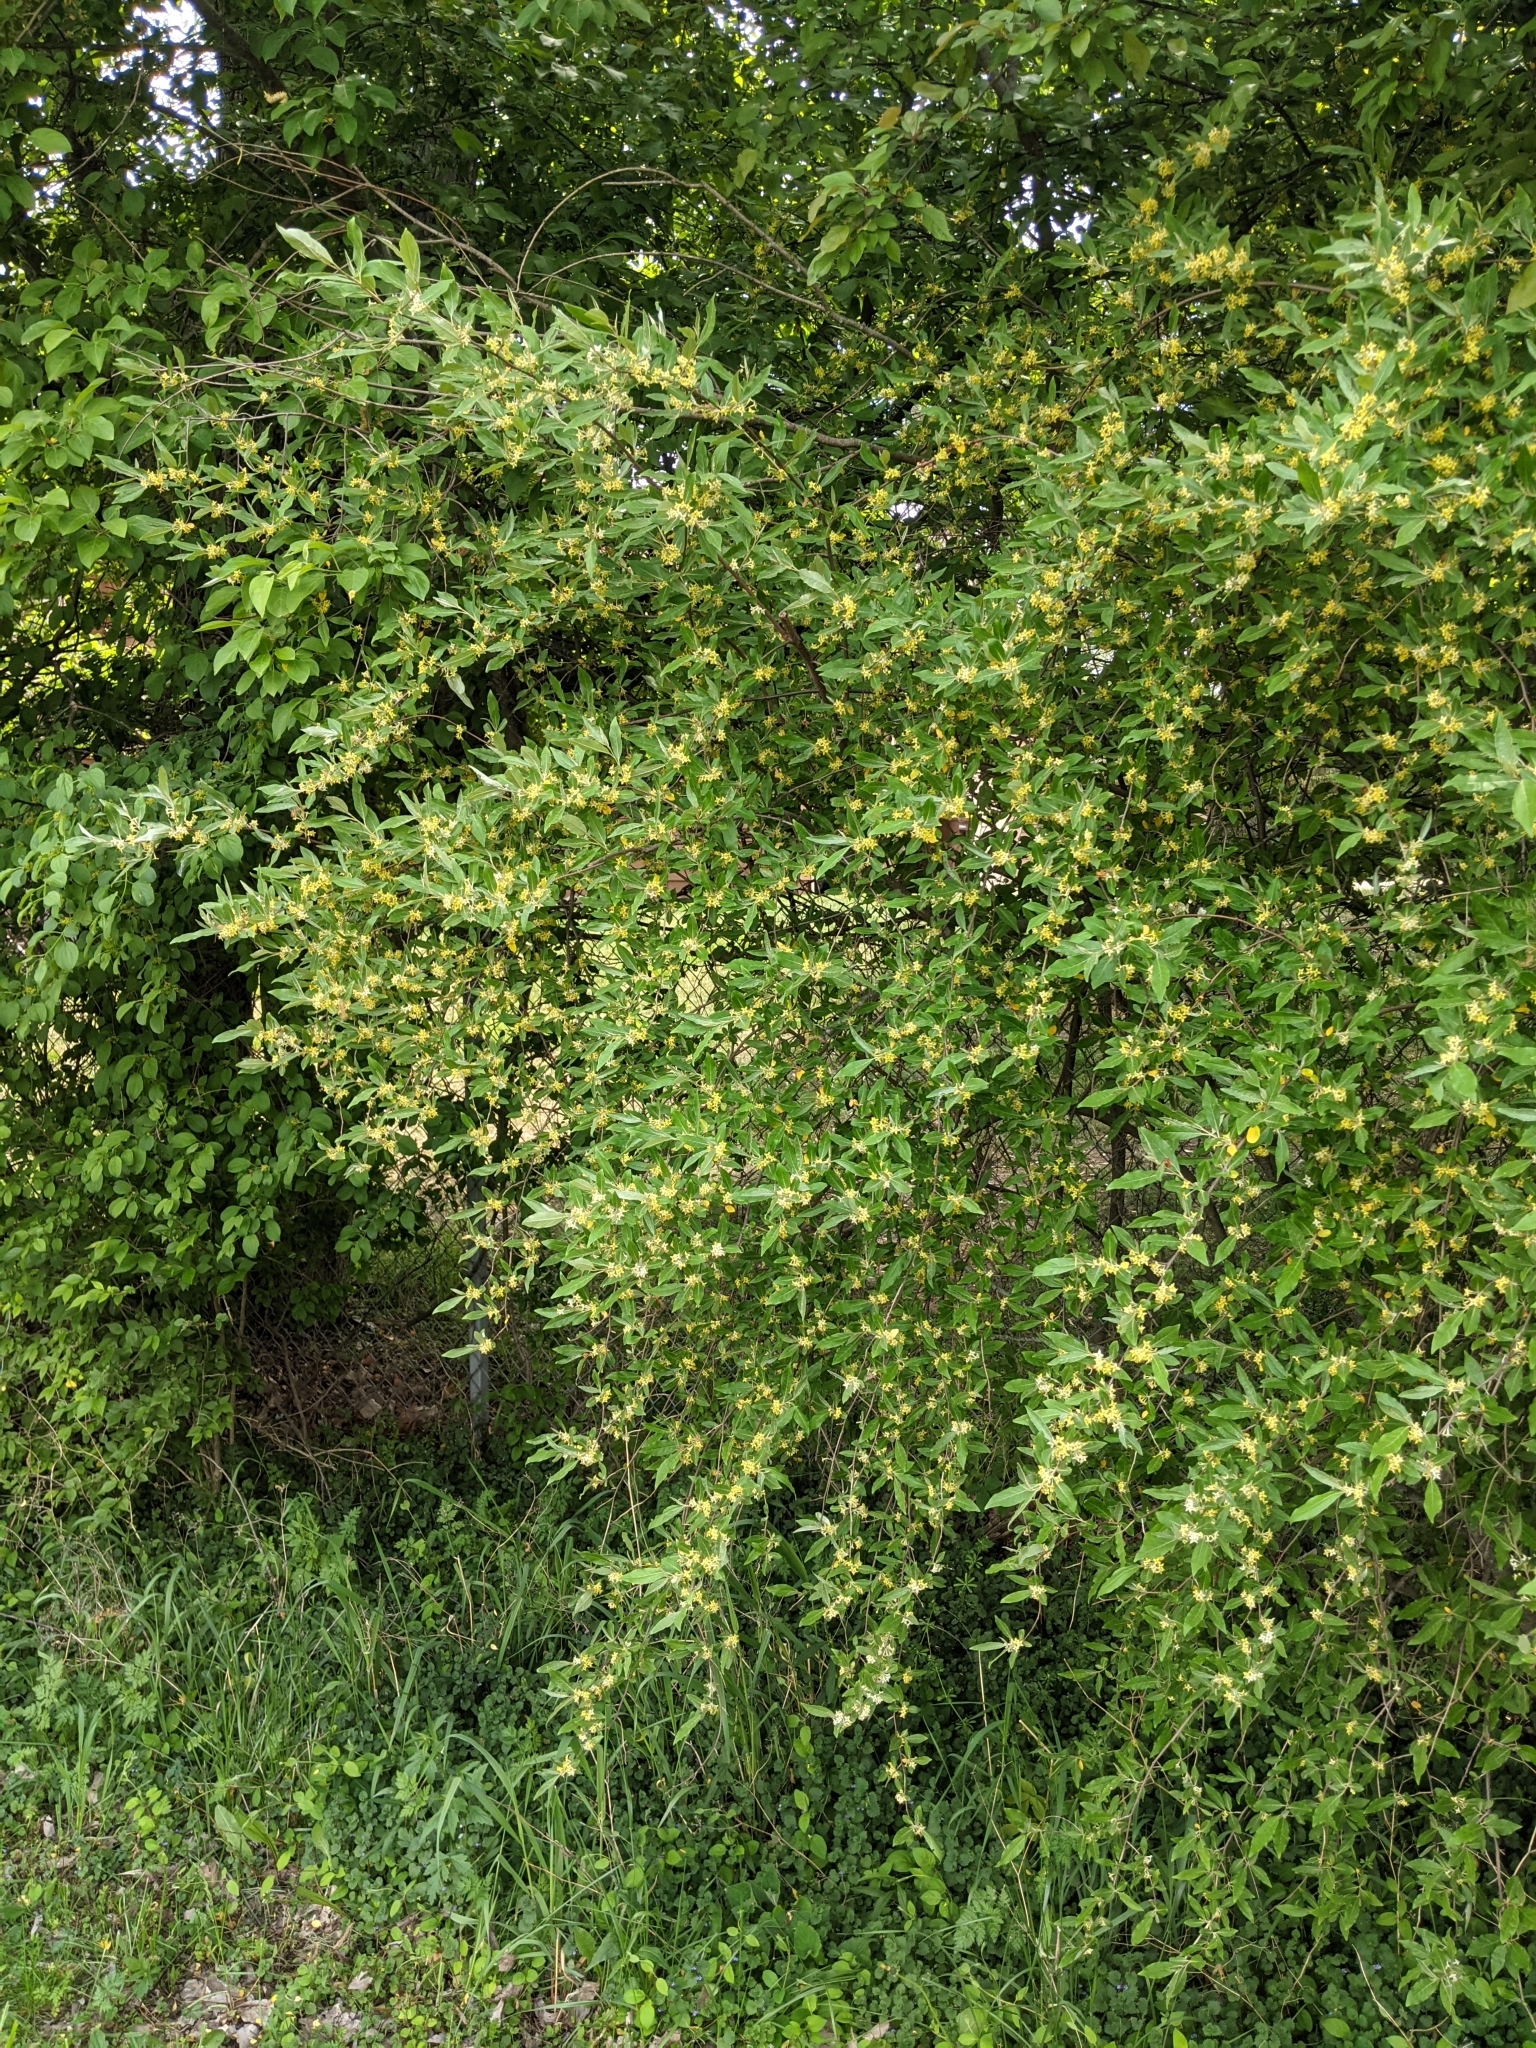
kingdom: Plantae
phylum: Tracheophyta
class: Magnoliopsida
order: Rosales
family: Elaeagnaceae
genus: Elaeagnus
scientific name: Elaeagnus umbellata
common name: Autumn olive
